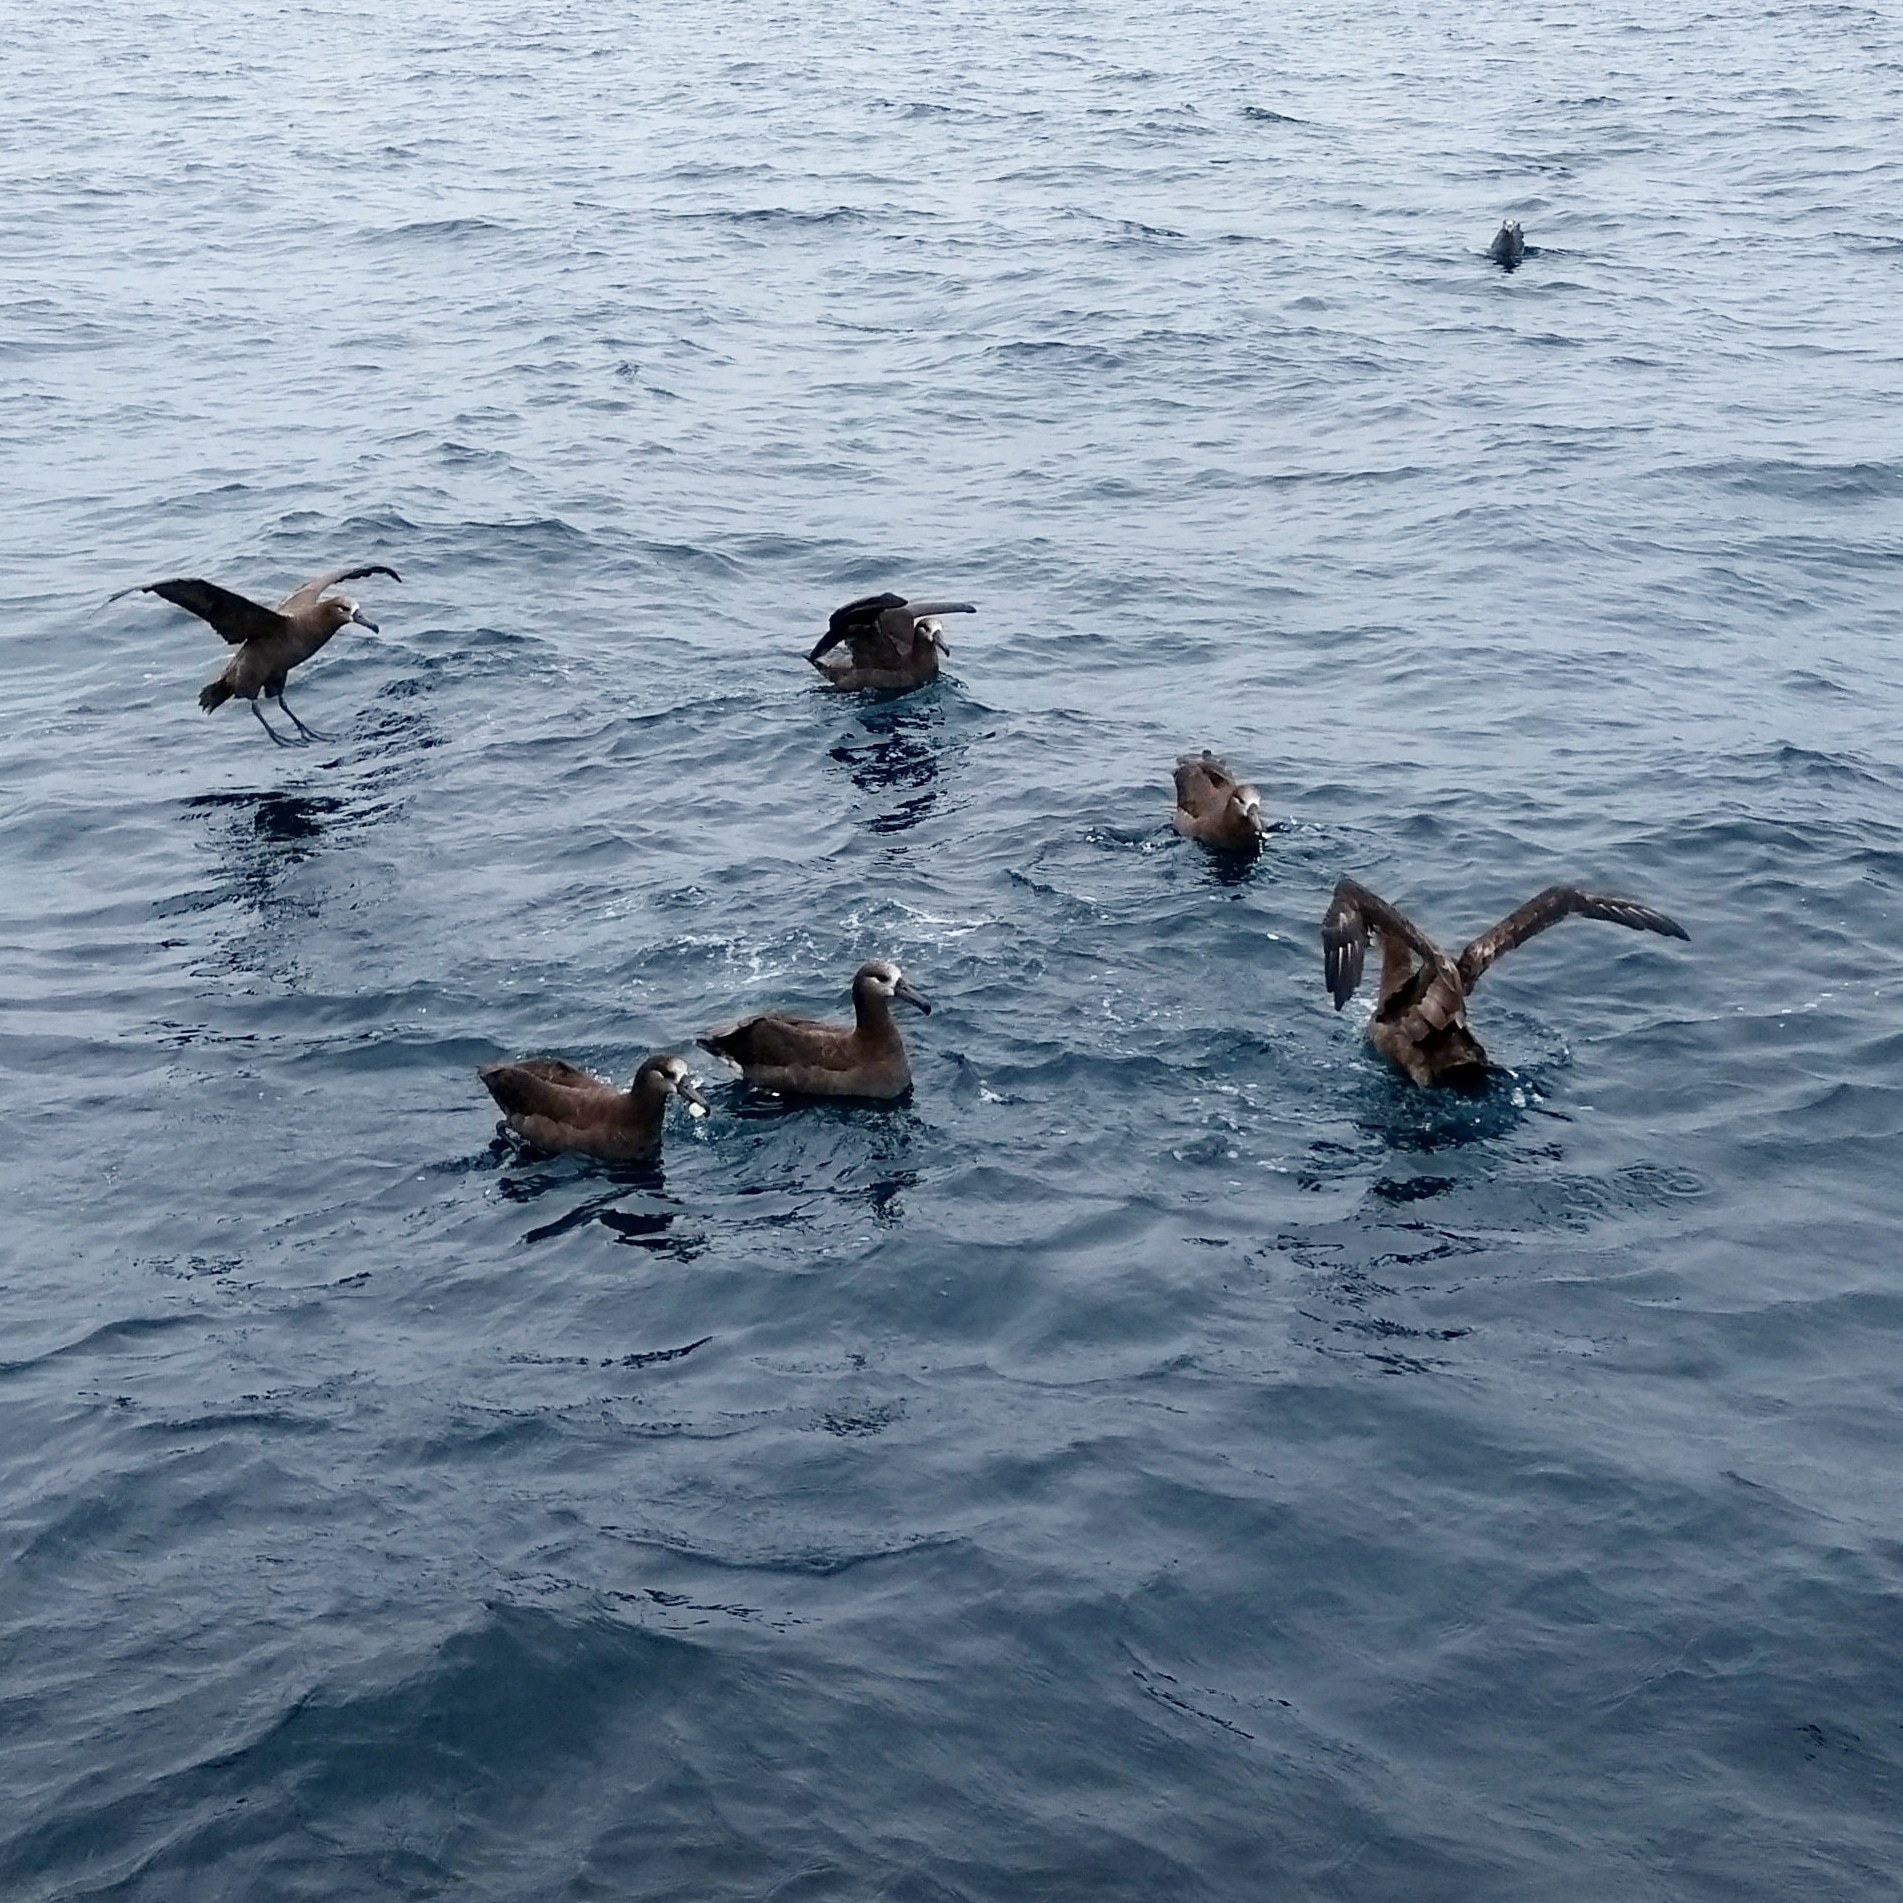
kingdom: Animalia
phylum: Chordata
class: Aves
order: Procellariiformes
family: Diomedeidae
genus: Phoebastria
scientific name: Phoebastria nigripes
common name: Black-footed albatross
